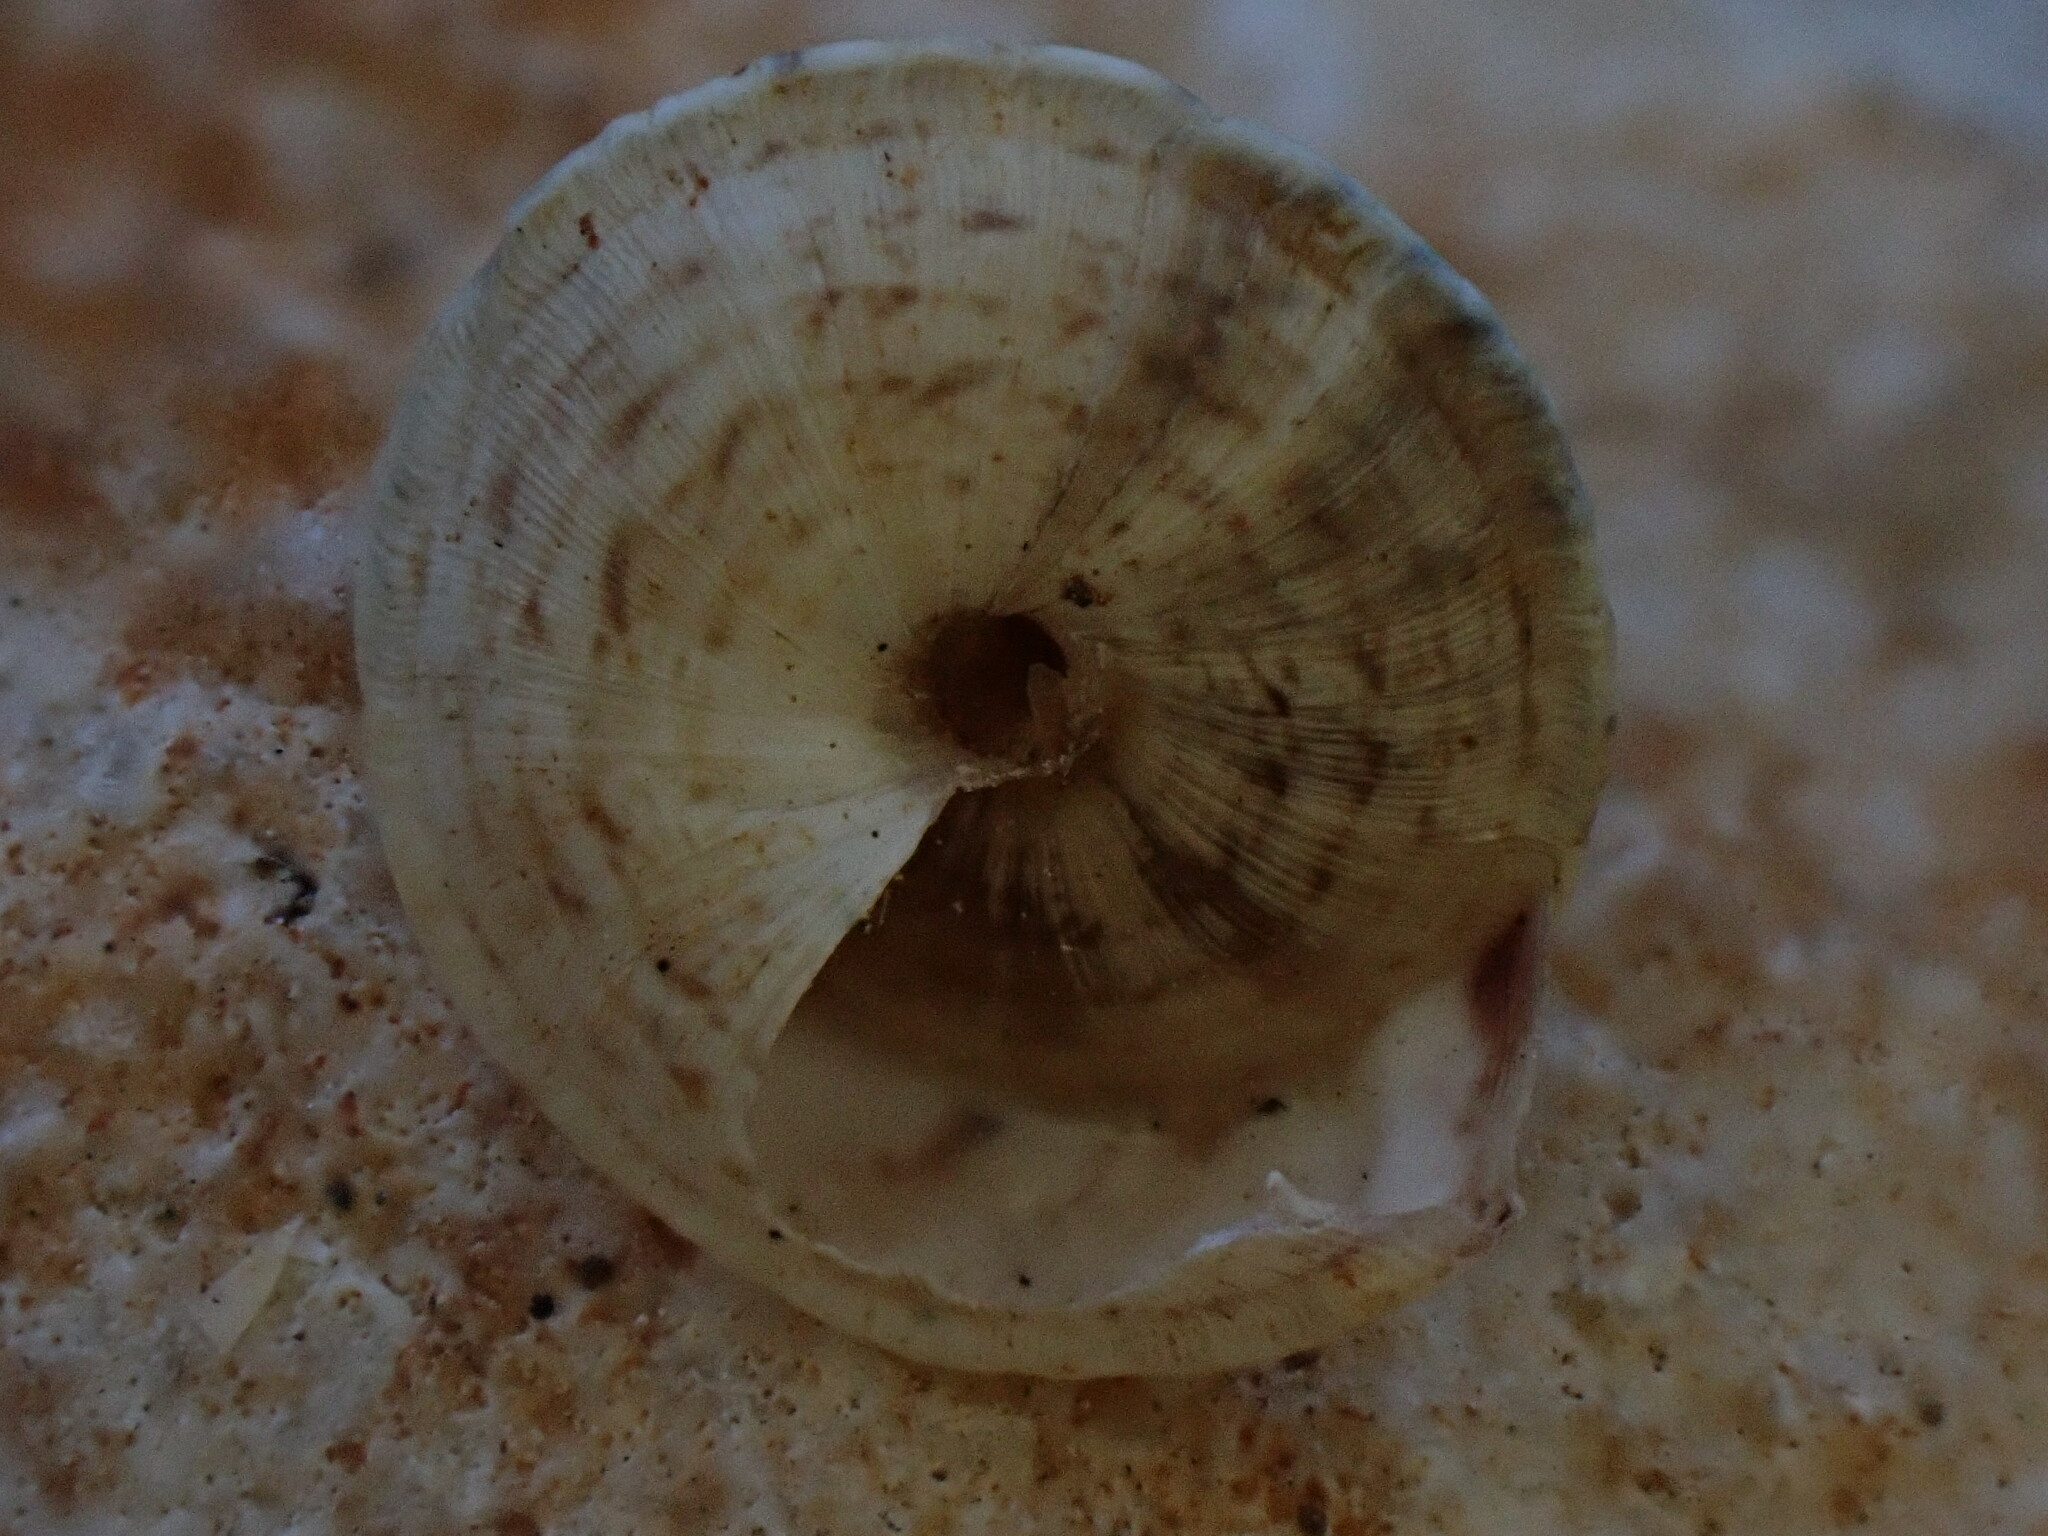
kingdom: Animalia
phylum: Mollusca
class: Gastropoda
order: Stylommatophora
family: Geomitridae
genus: Trochoidea
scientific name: Trochoidea elegans
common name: Elegant helicellid
